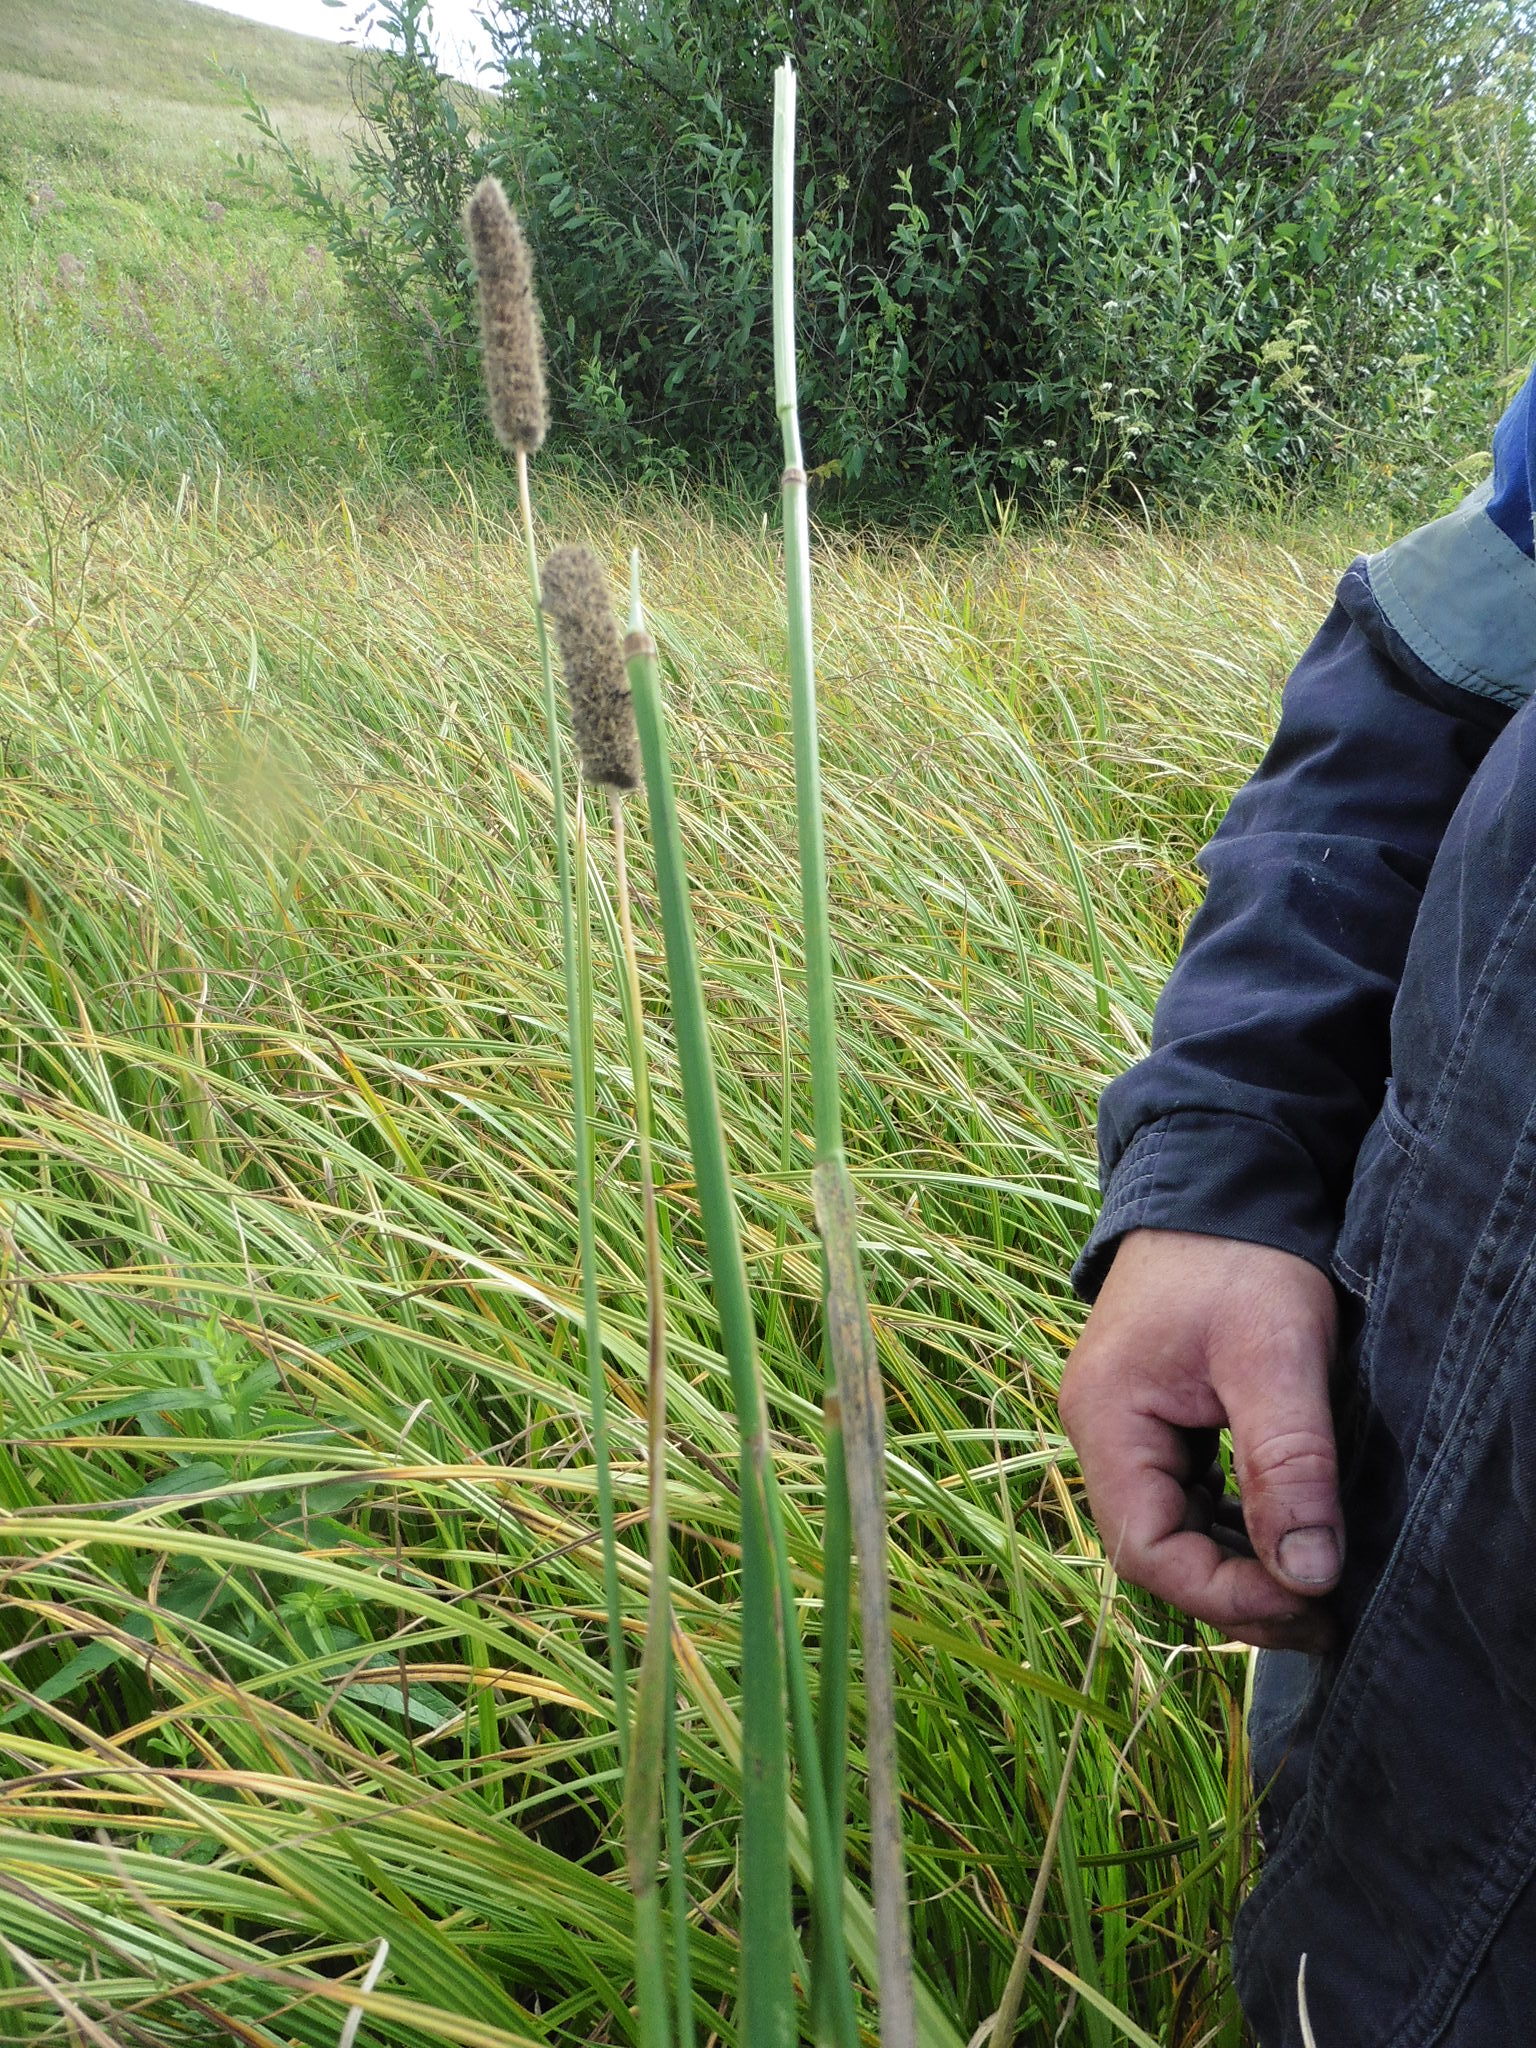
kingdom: Plantae
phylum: Tracheophyta
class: Liliopsida
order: Poales
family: Poaceae
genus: Alopecurus
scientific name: Alopecurus arundinaceus
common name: Creeping meadow foxtail
